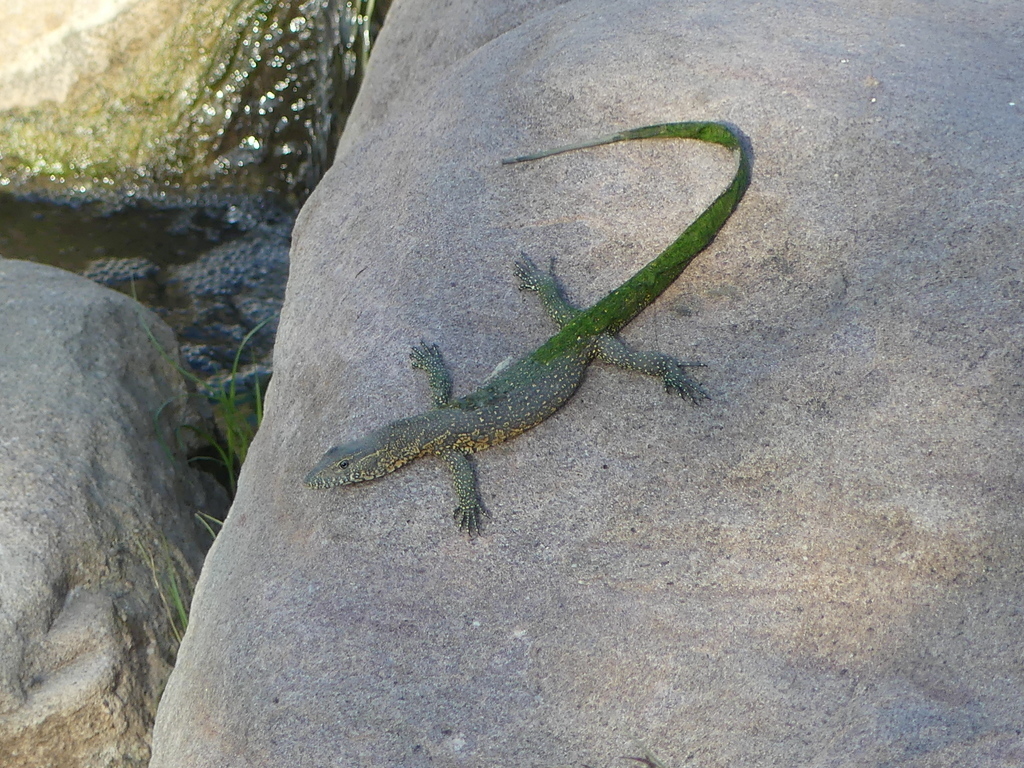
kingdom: Animalia
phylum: Chordata
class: Squamata
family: Varanidae
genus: Varanus
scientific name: Varanus niloticus
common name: Nile monitor
